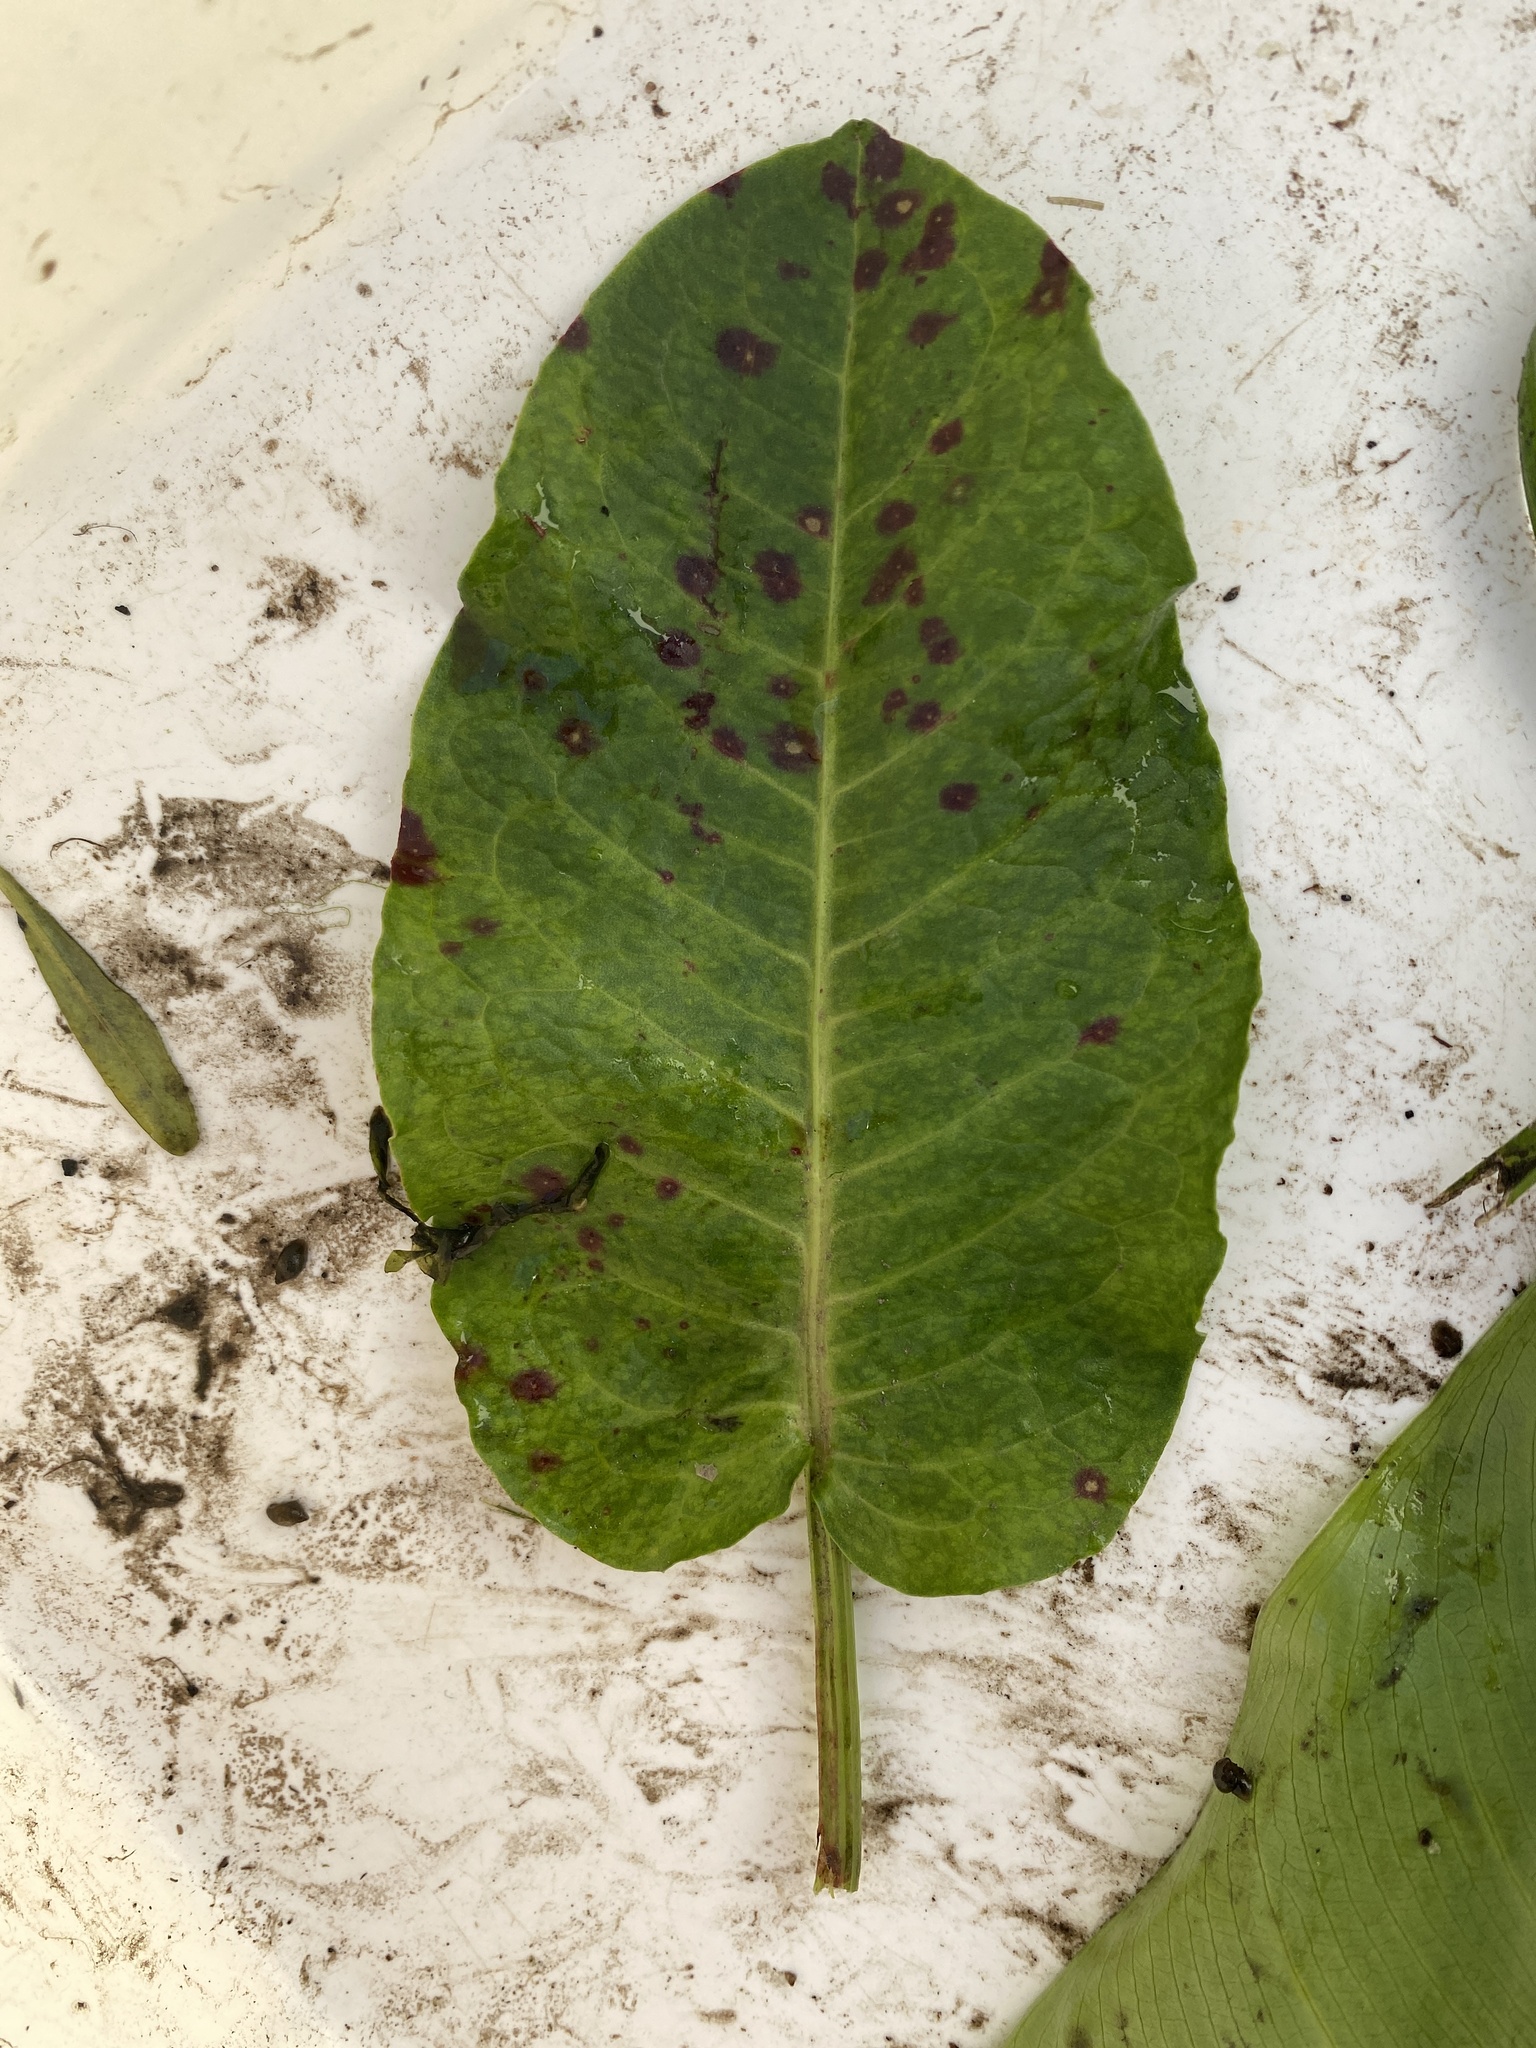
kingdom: Plantae
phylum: Tracheophyta
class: Magnoliopsida
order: Caryophyllales
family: Polygonaceae
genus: Rumex
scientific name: Rumex obtusifolius
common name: Bitter dock
